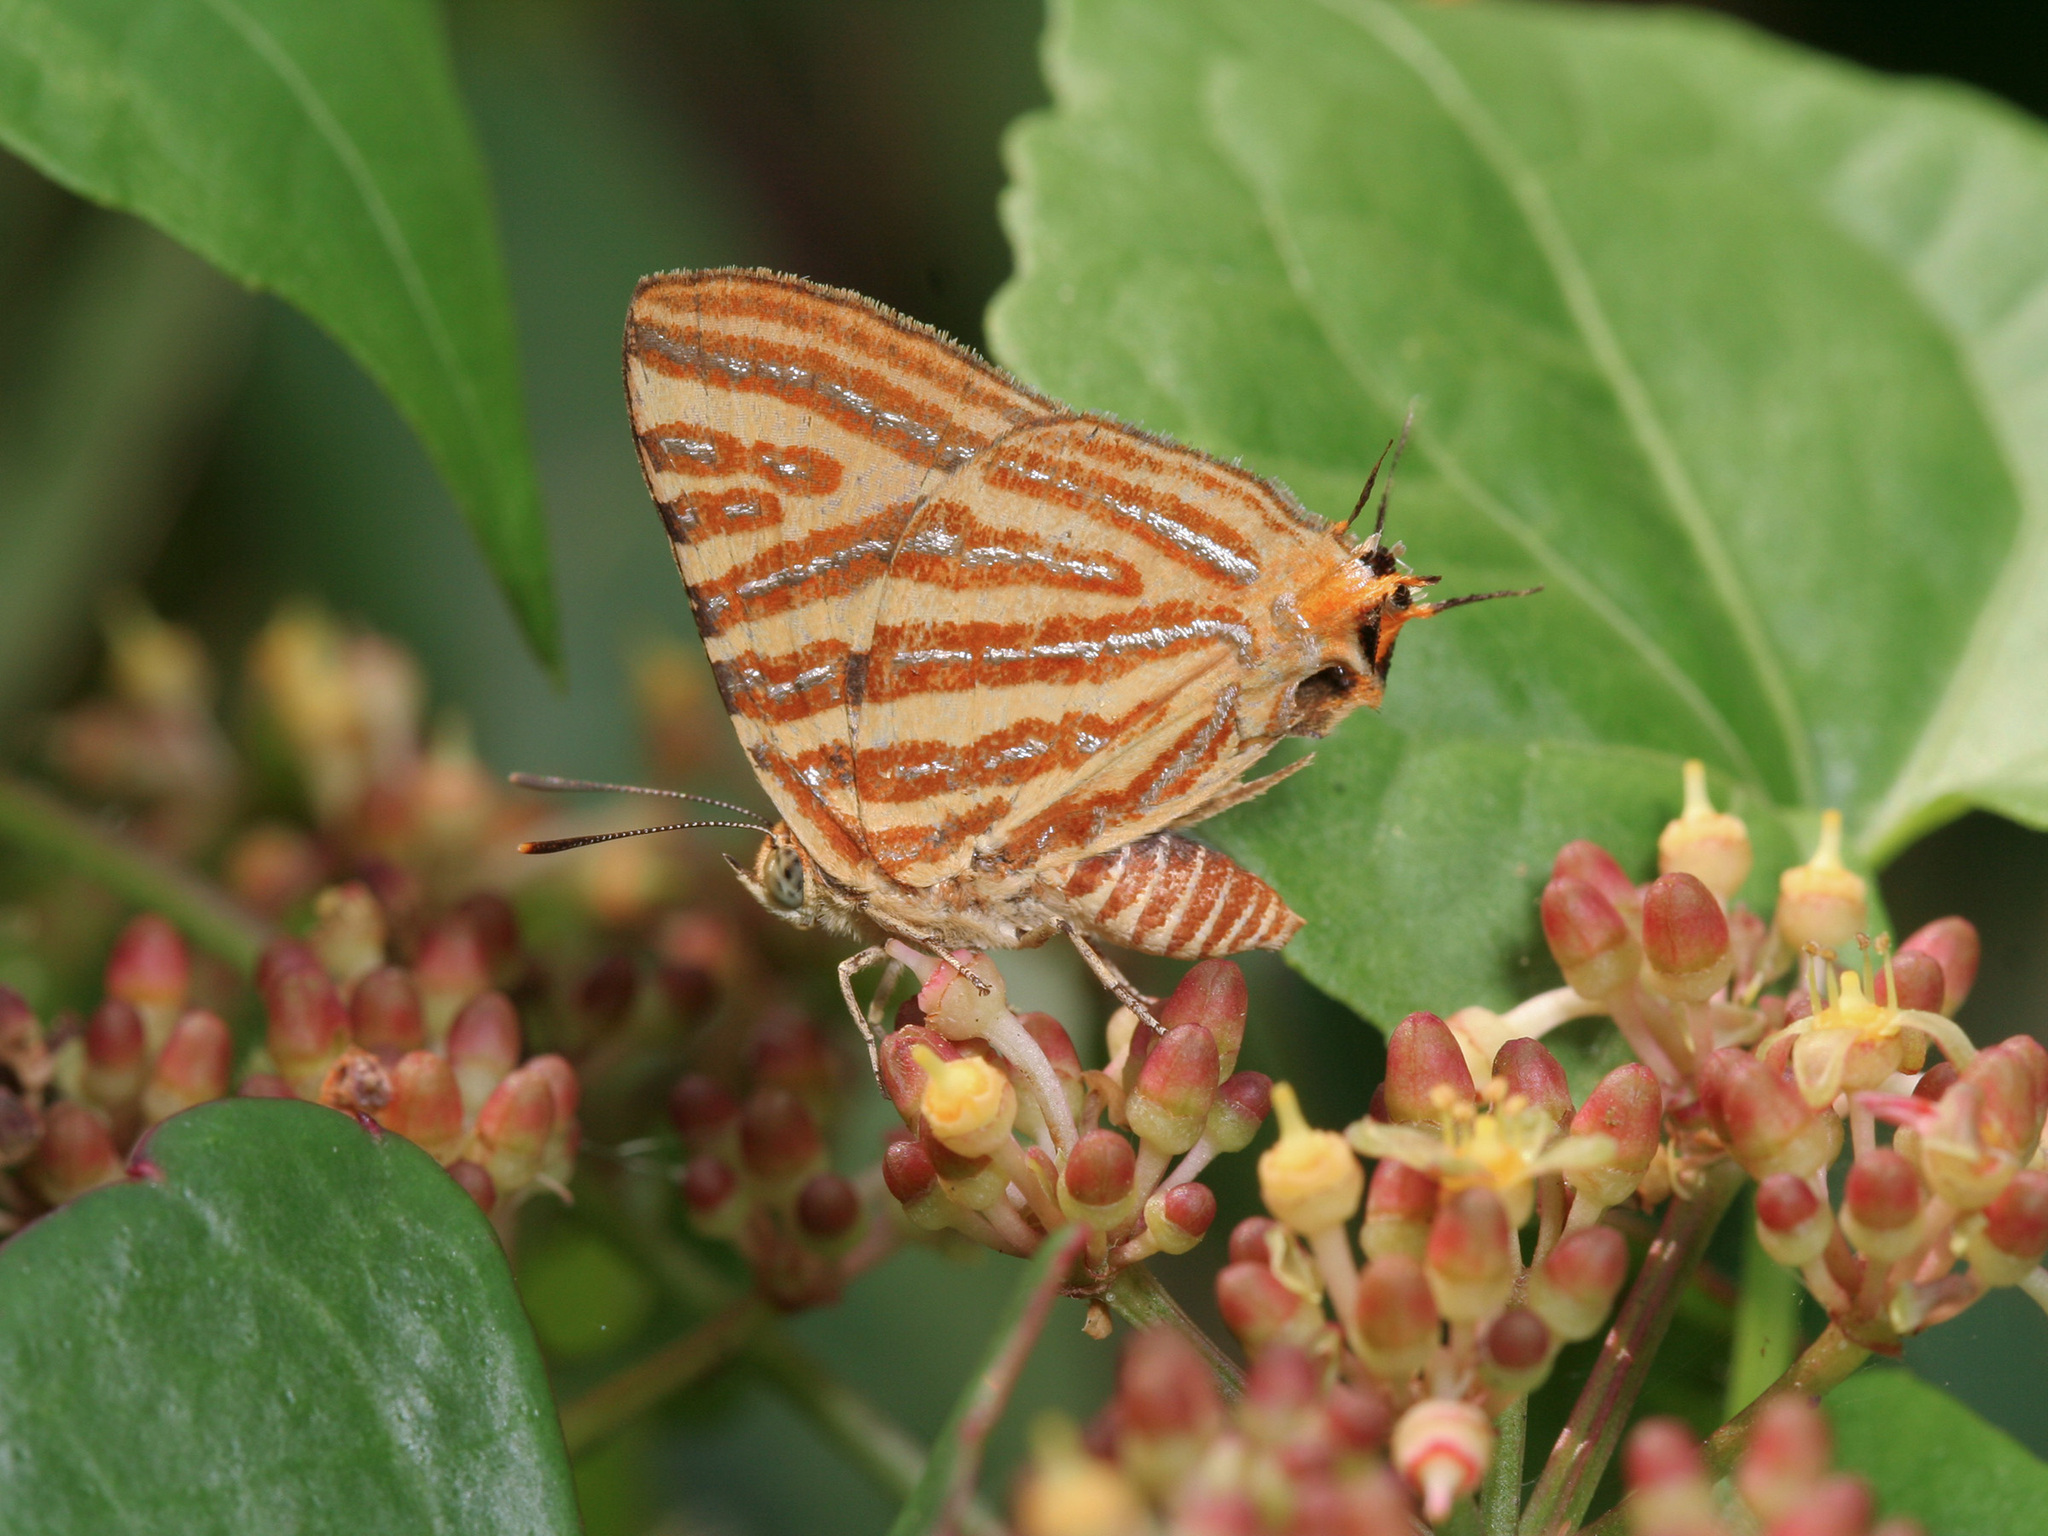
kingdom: Animalia
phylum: Arthropoda
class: Insecta
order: Lepidoptera
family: Lycaenidae
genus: Cigaritis
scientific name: Cigaritis lohita
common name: Long-banded silverline
